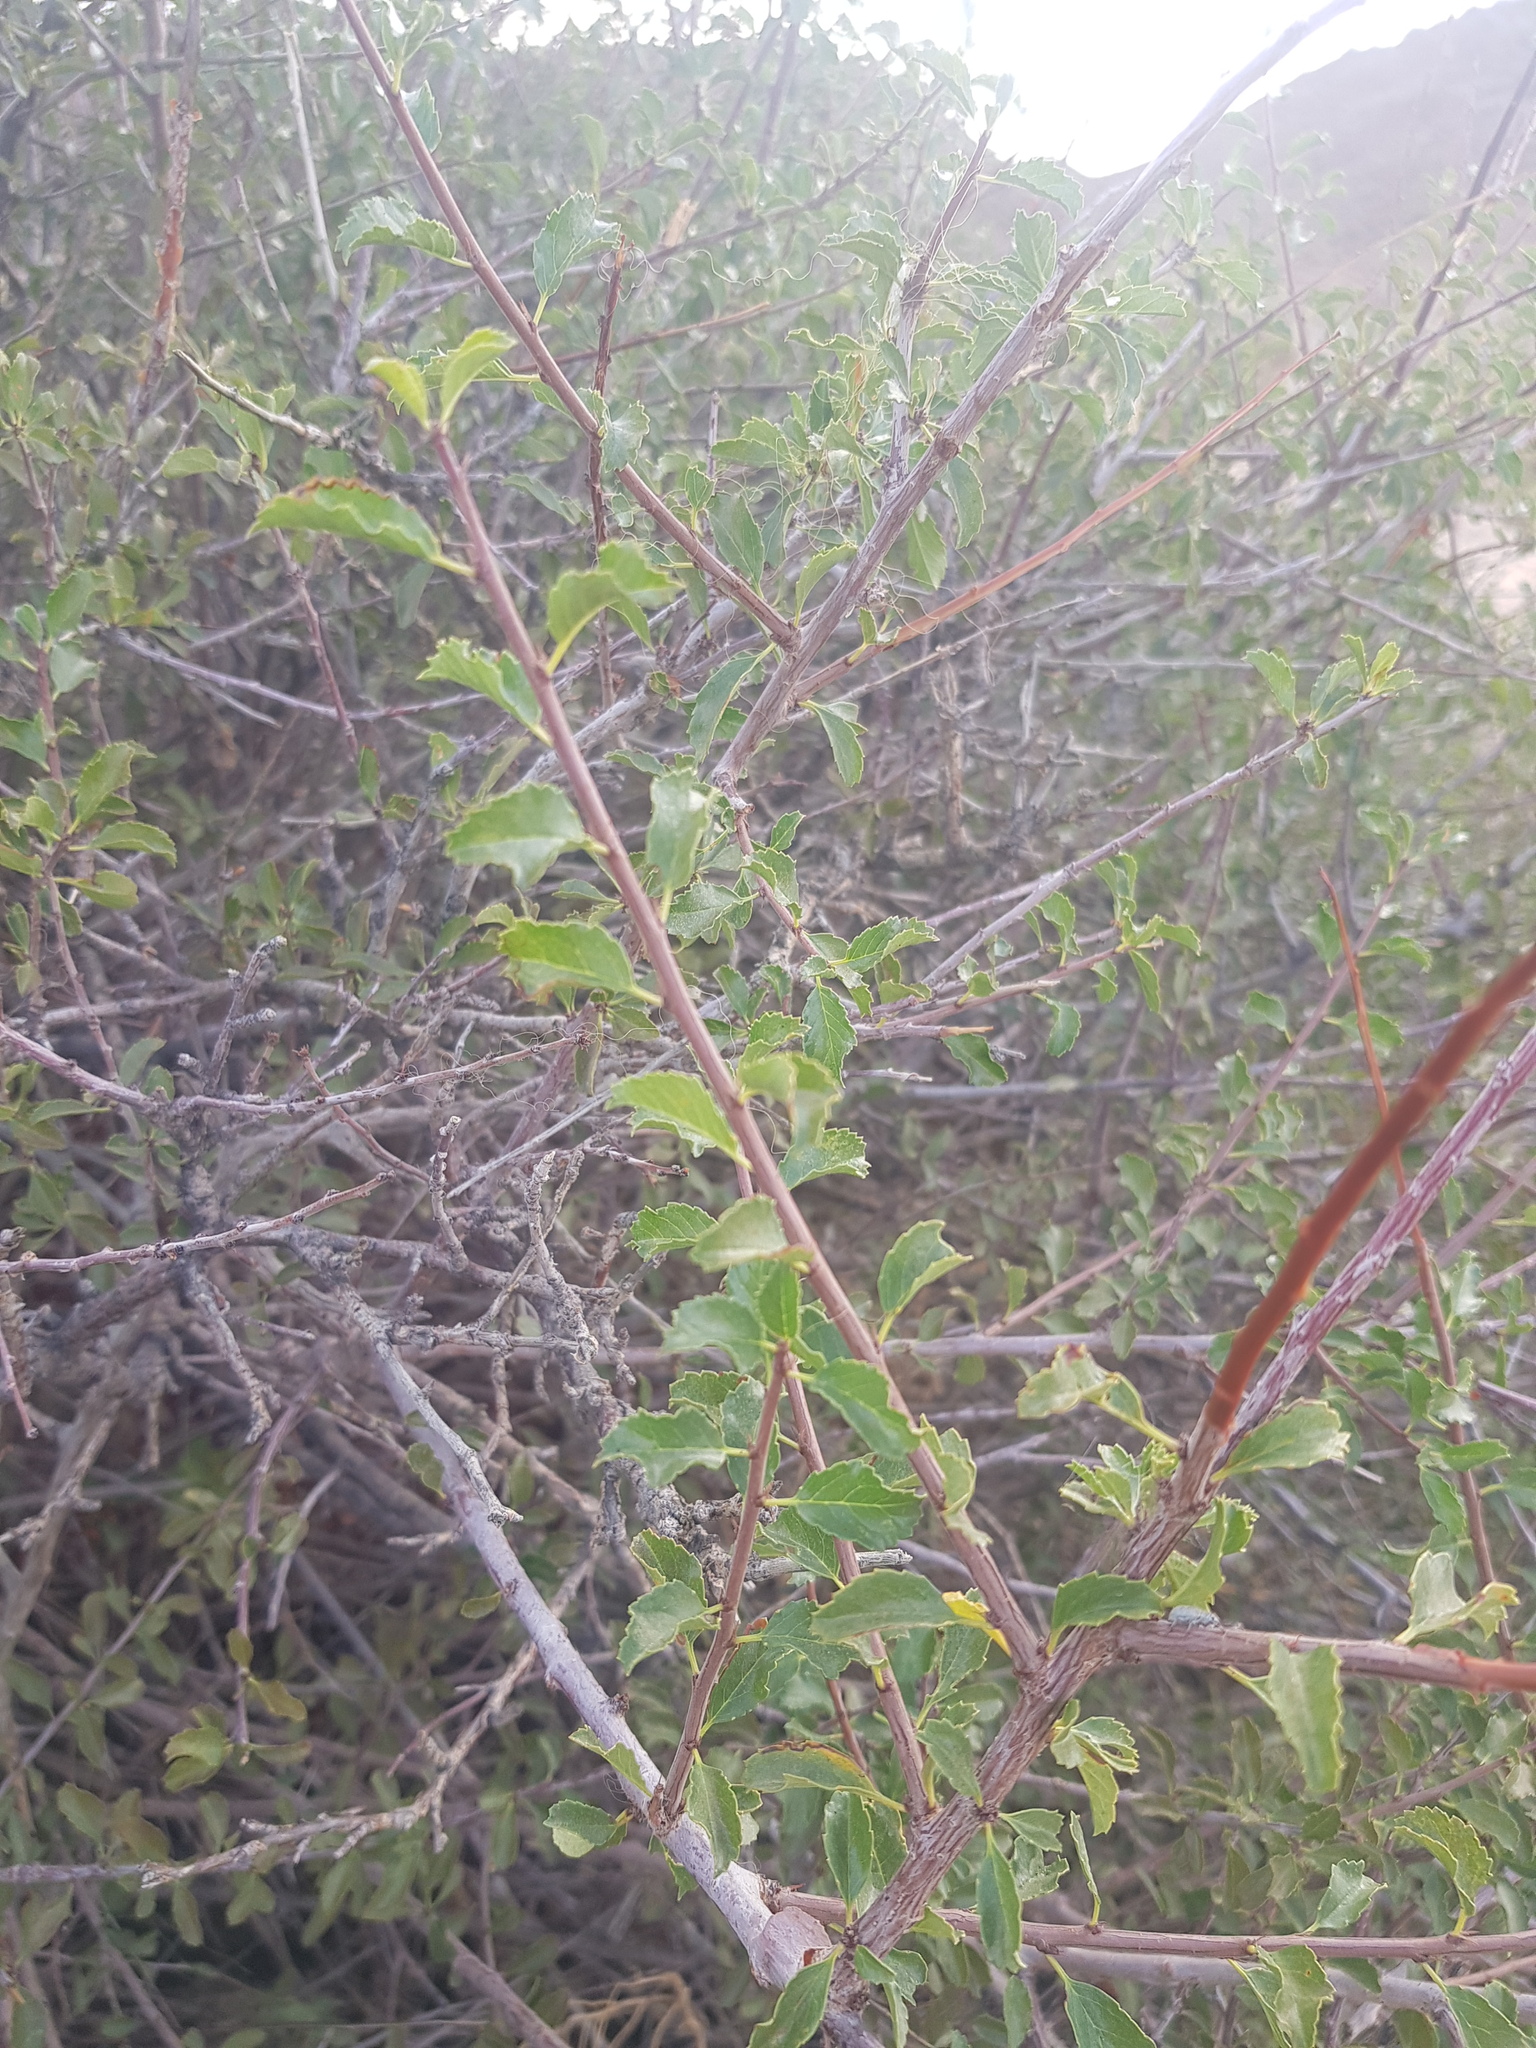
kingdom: Plantae
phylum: Tracheophyta
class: Magnoliopsida
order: Rosales
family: Rosaceae
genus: Prunus
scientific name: Prunus pedunculata
